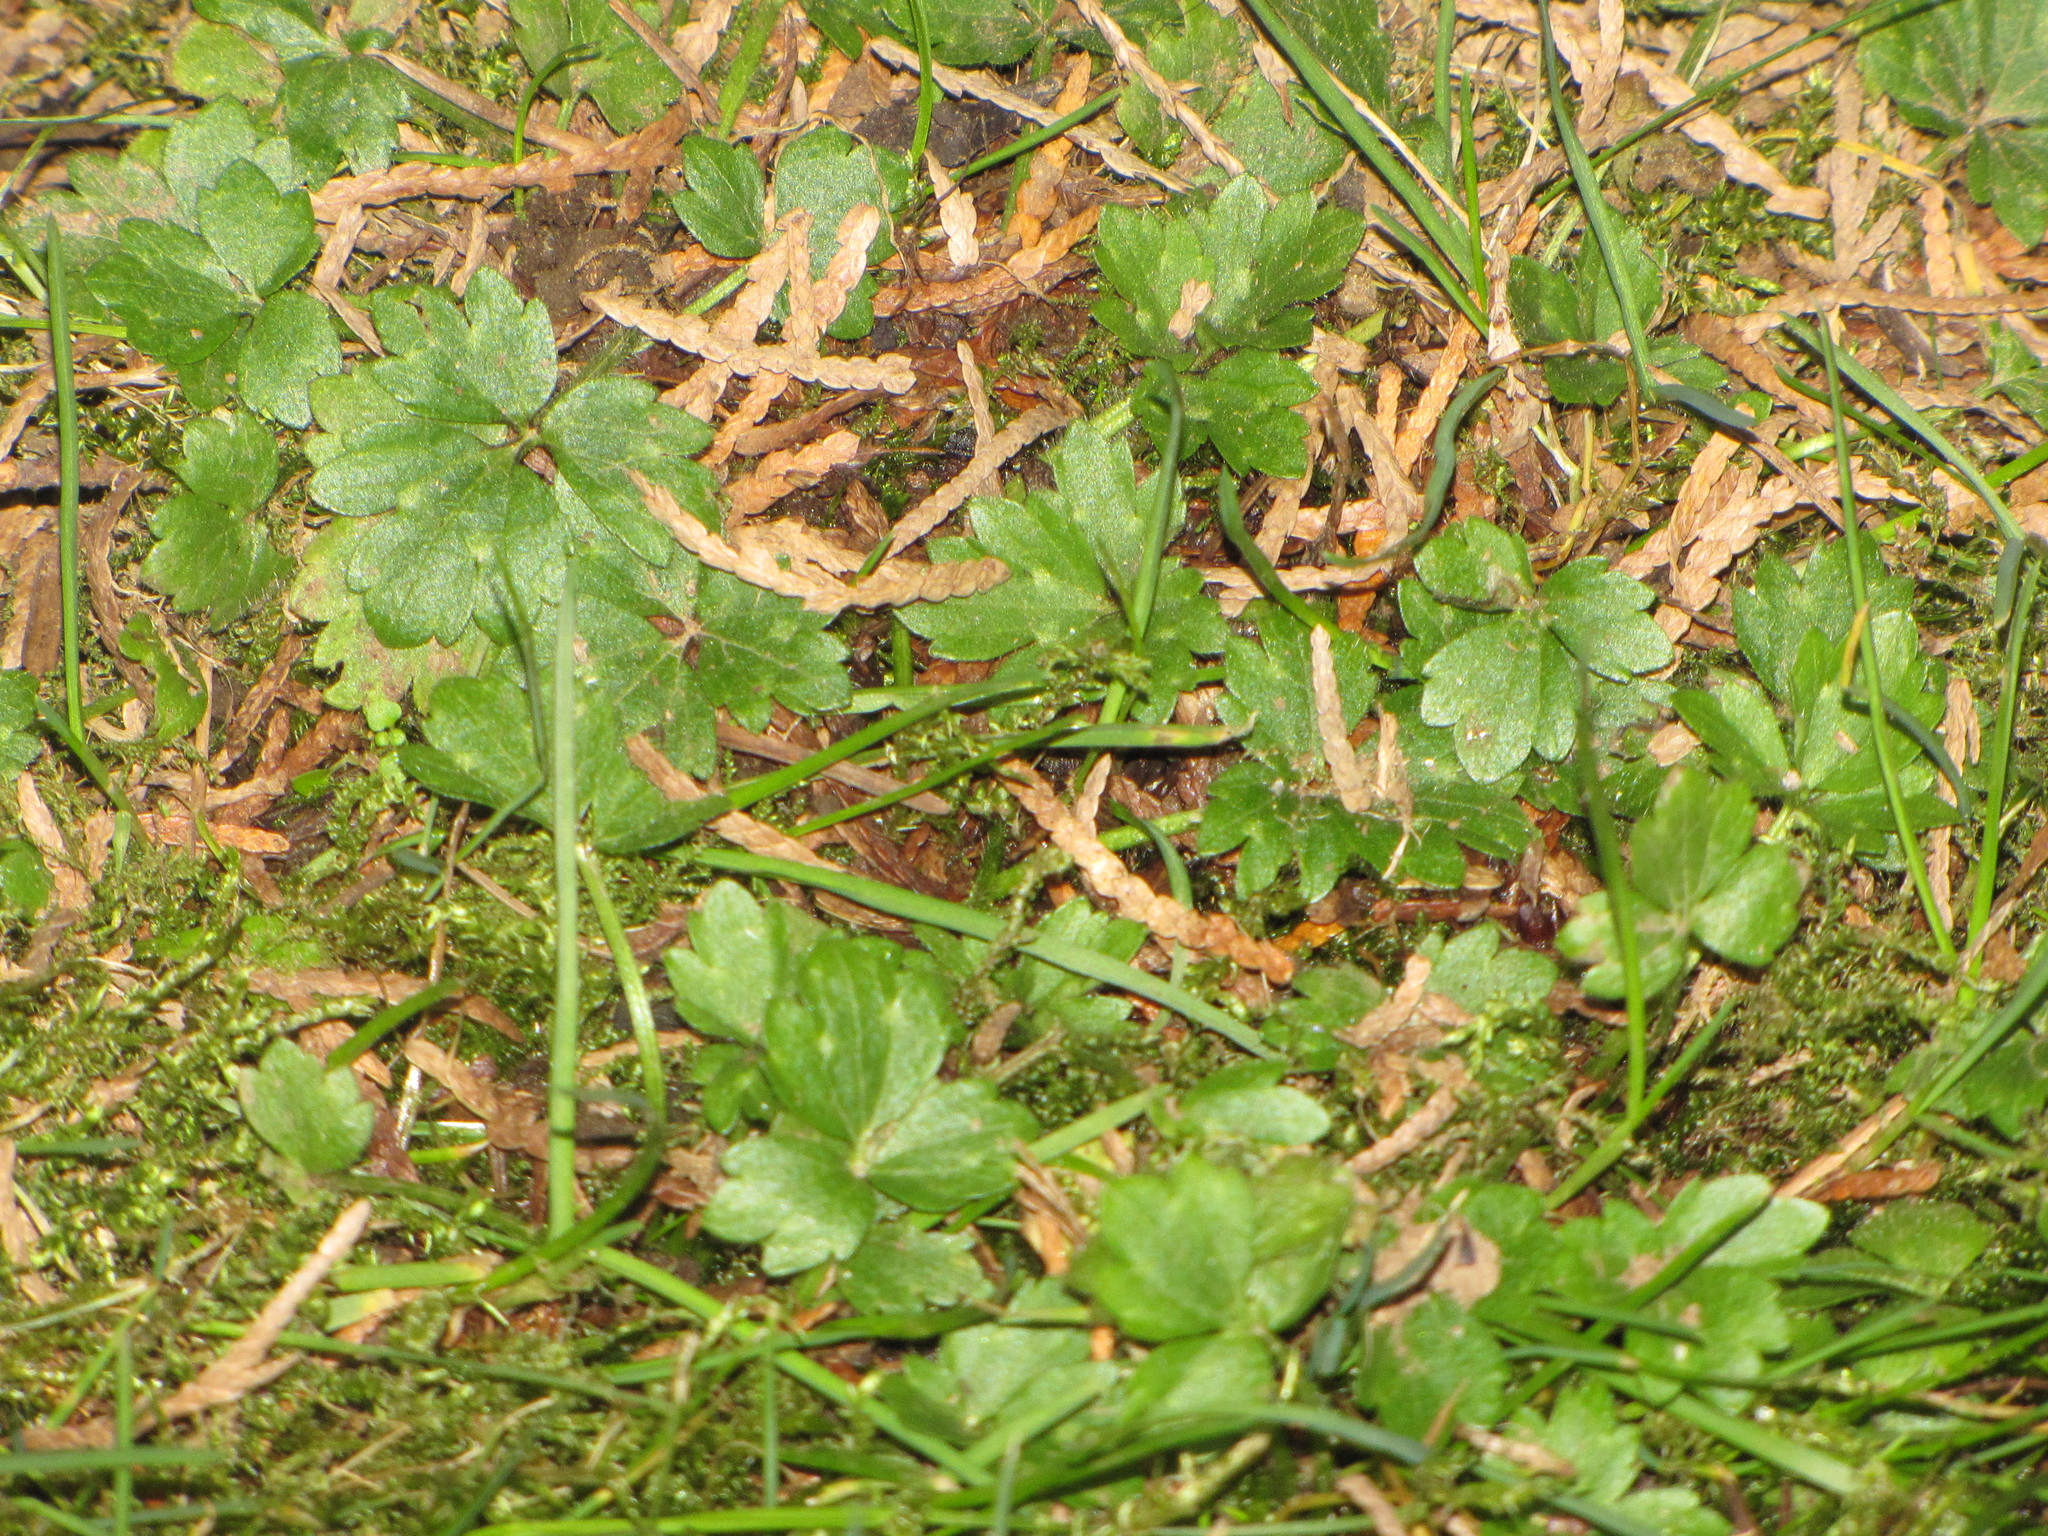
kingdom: Plantae
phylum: Tracheophyta
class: Magnoliopsida
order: Ranunculales
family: Ranunculaceae
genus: Ranunculus
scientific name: Ranunculus repens
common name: Creeping buttercup
